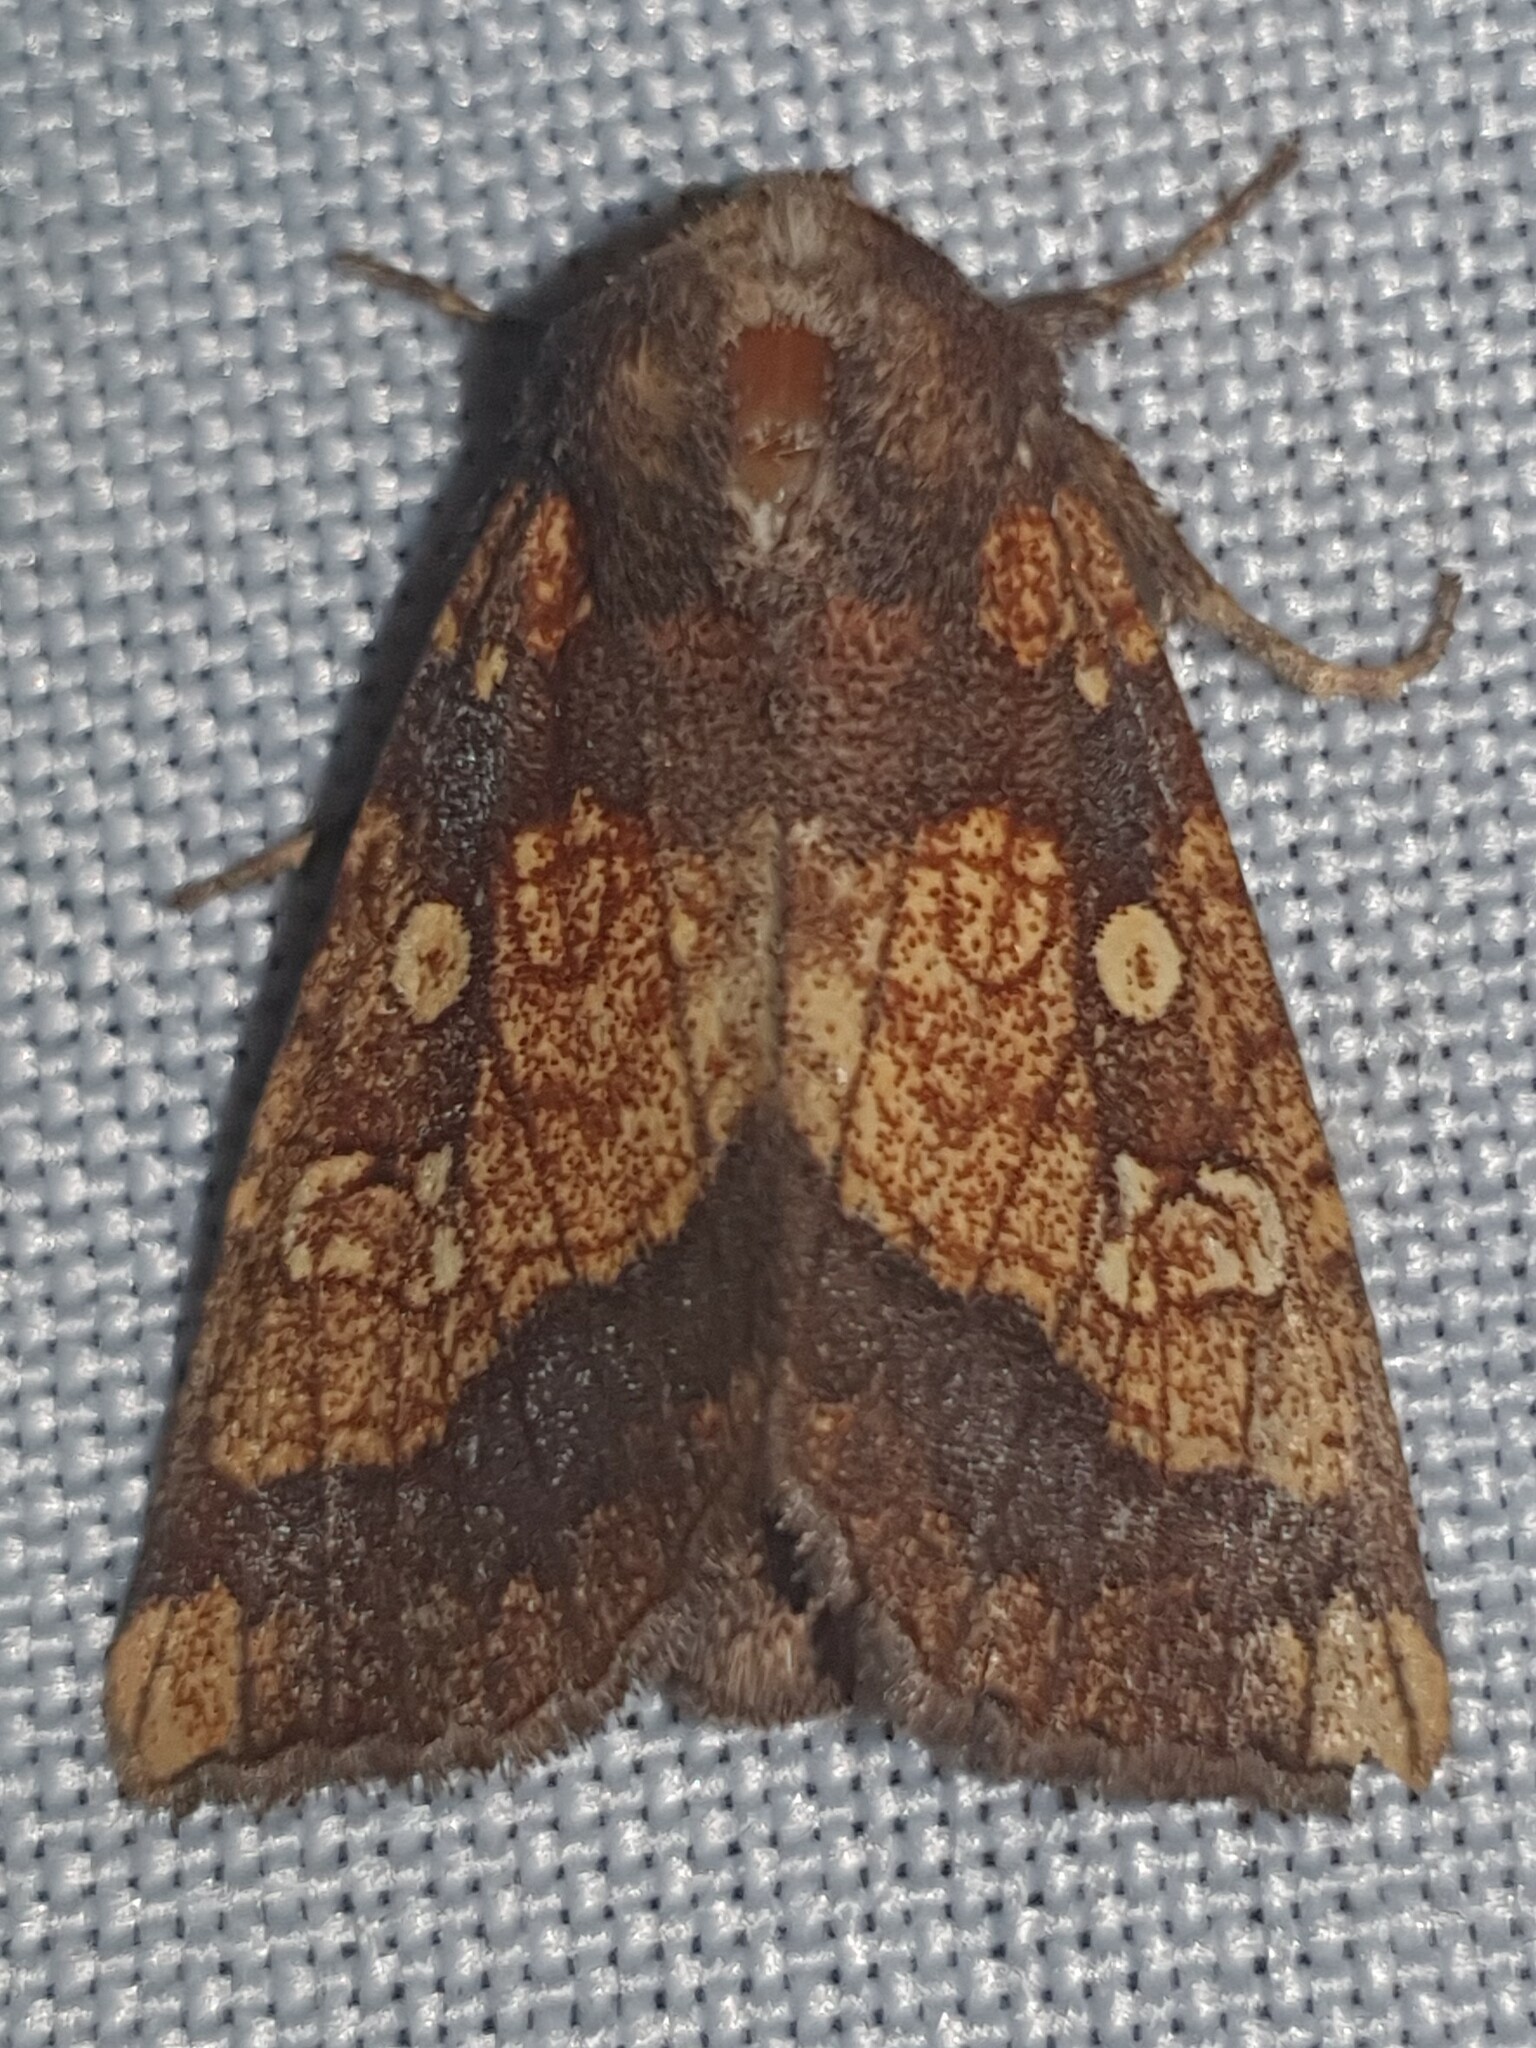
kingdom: Animalia
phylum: Arthropoda
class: Insecta
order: Lepidoptera
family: Noctuidae
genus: Gortyna
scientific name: Gortyna flavago
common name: Frosted orange
